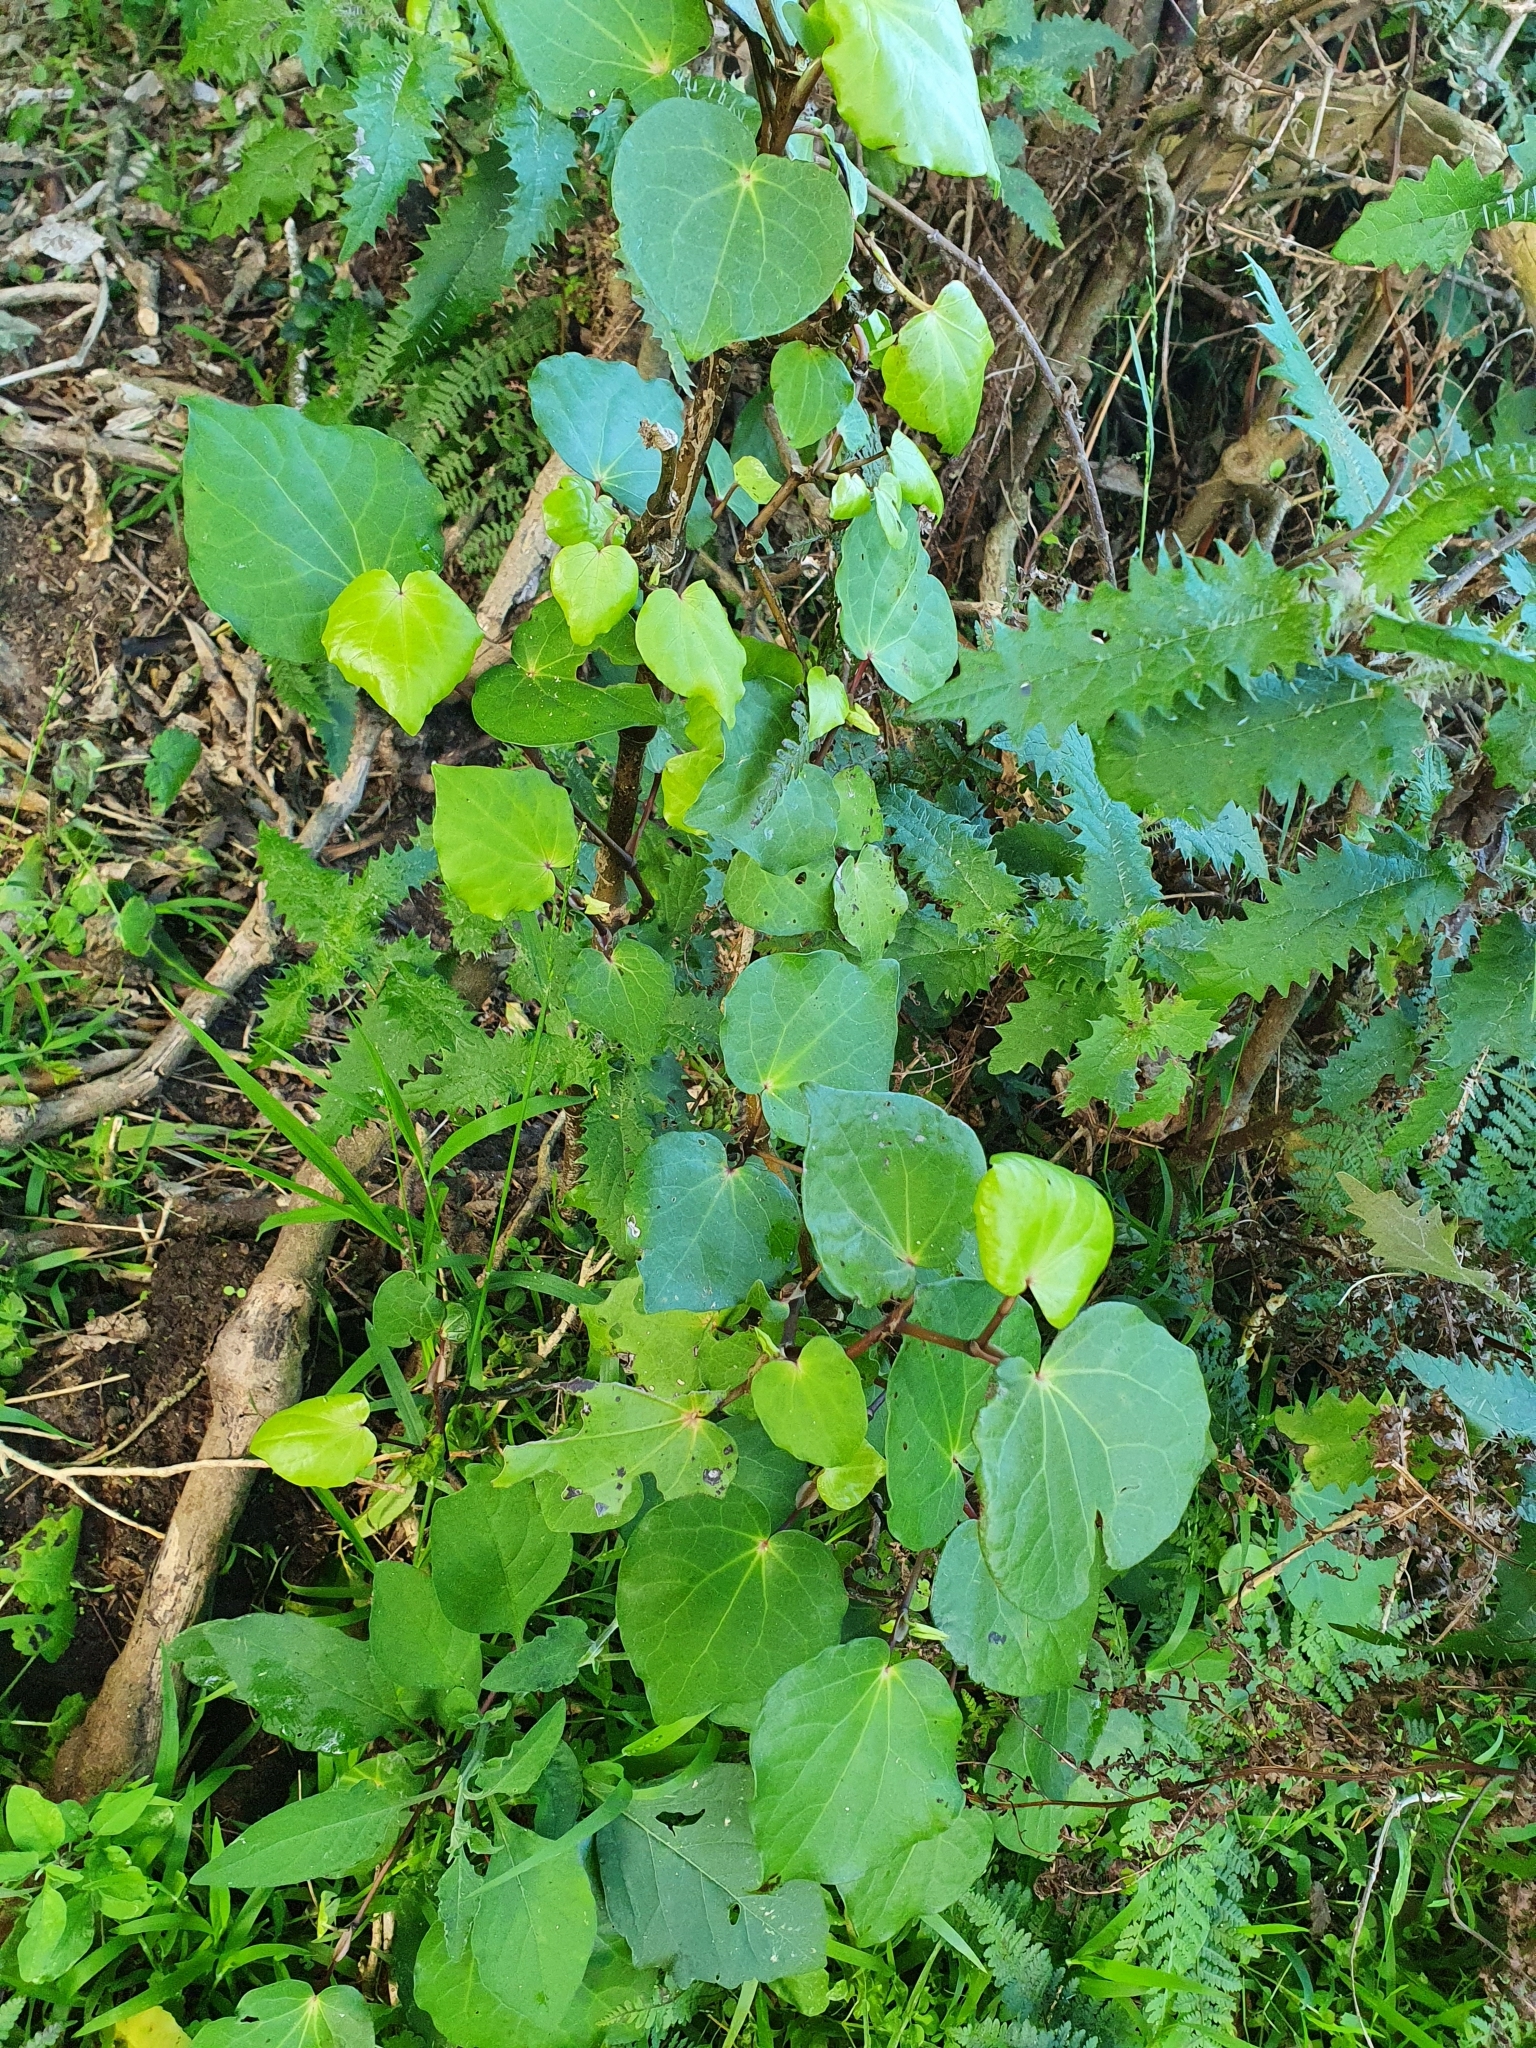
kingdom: Plantae
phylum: Tracheophyta
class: Magnoliopsida
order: Piperales
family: Piperaceae
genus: Macropiper
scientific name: Macropiper excelsum
